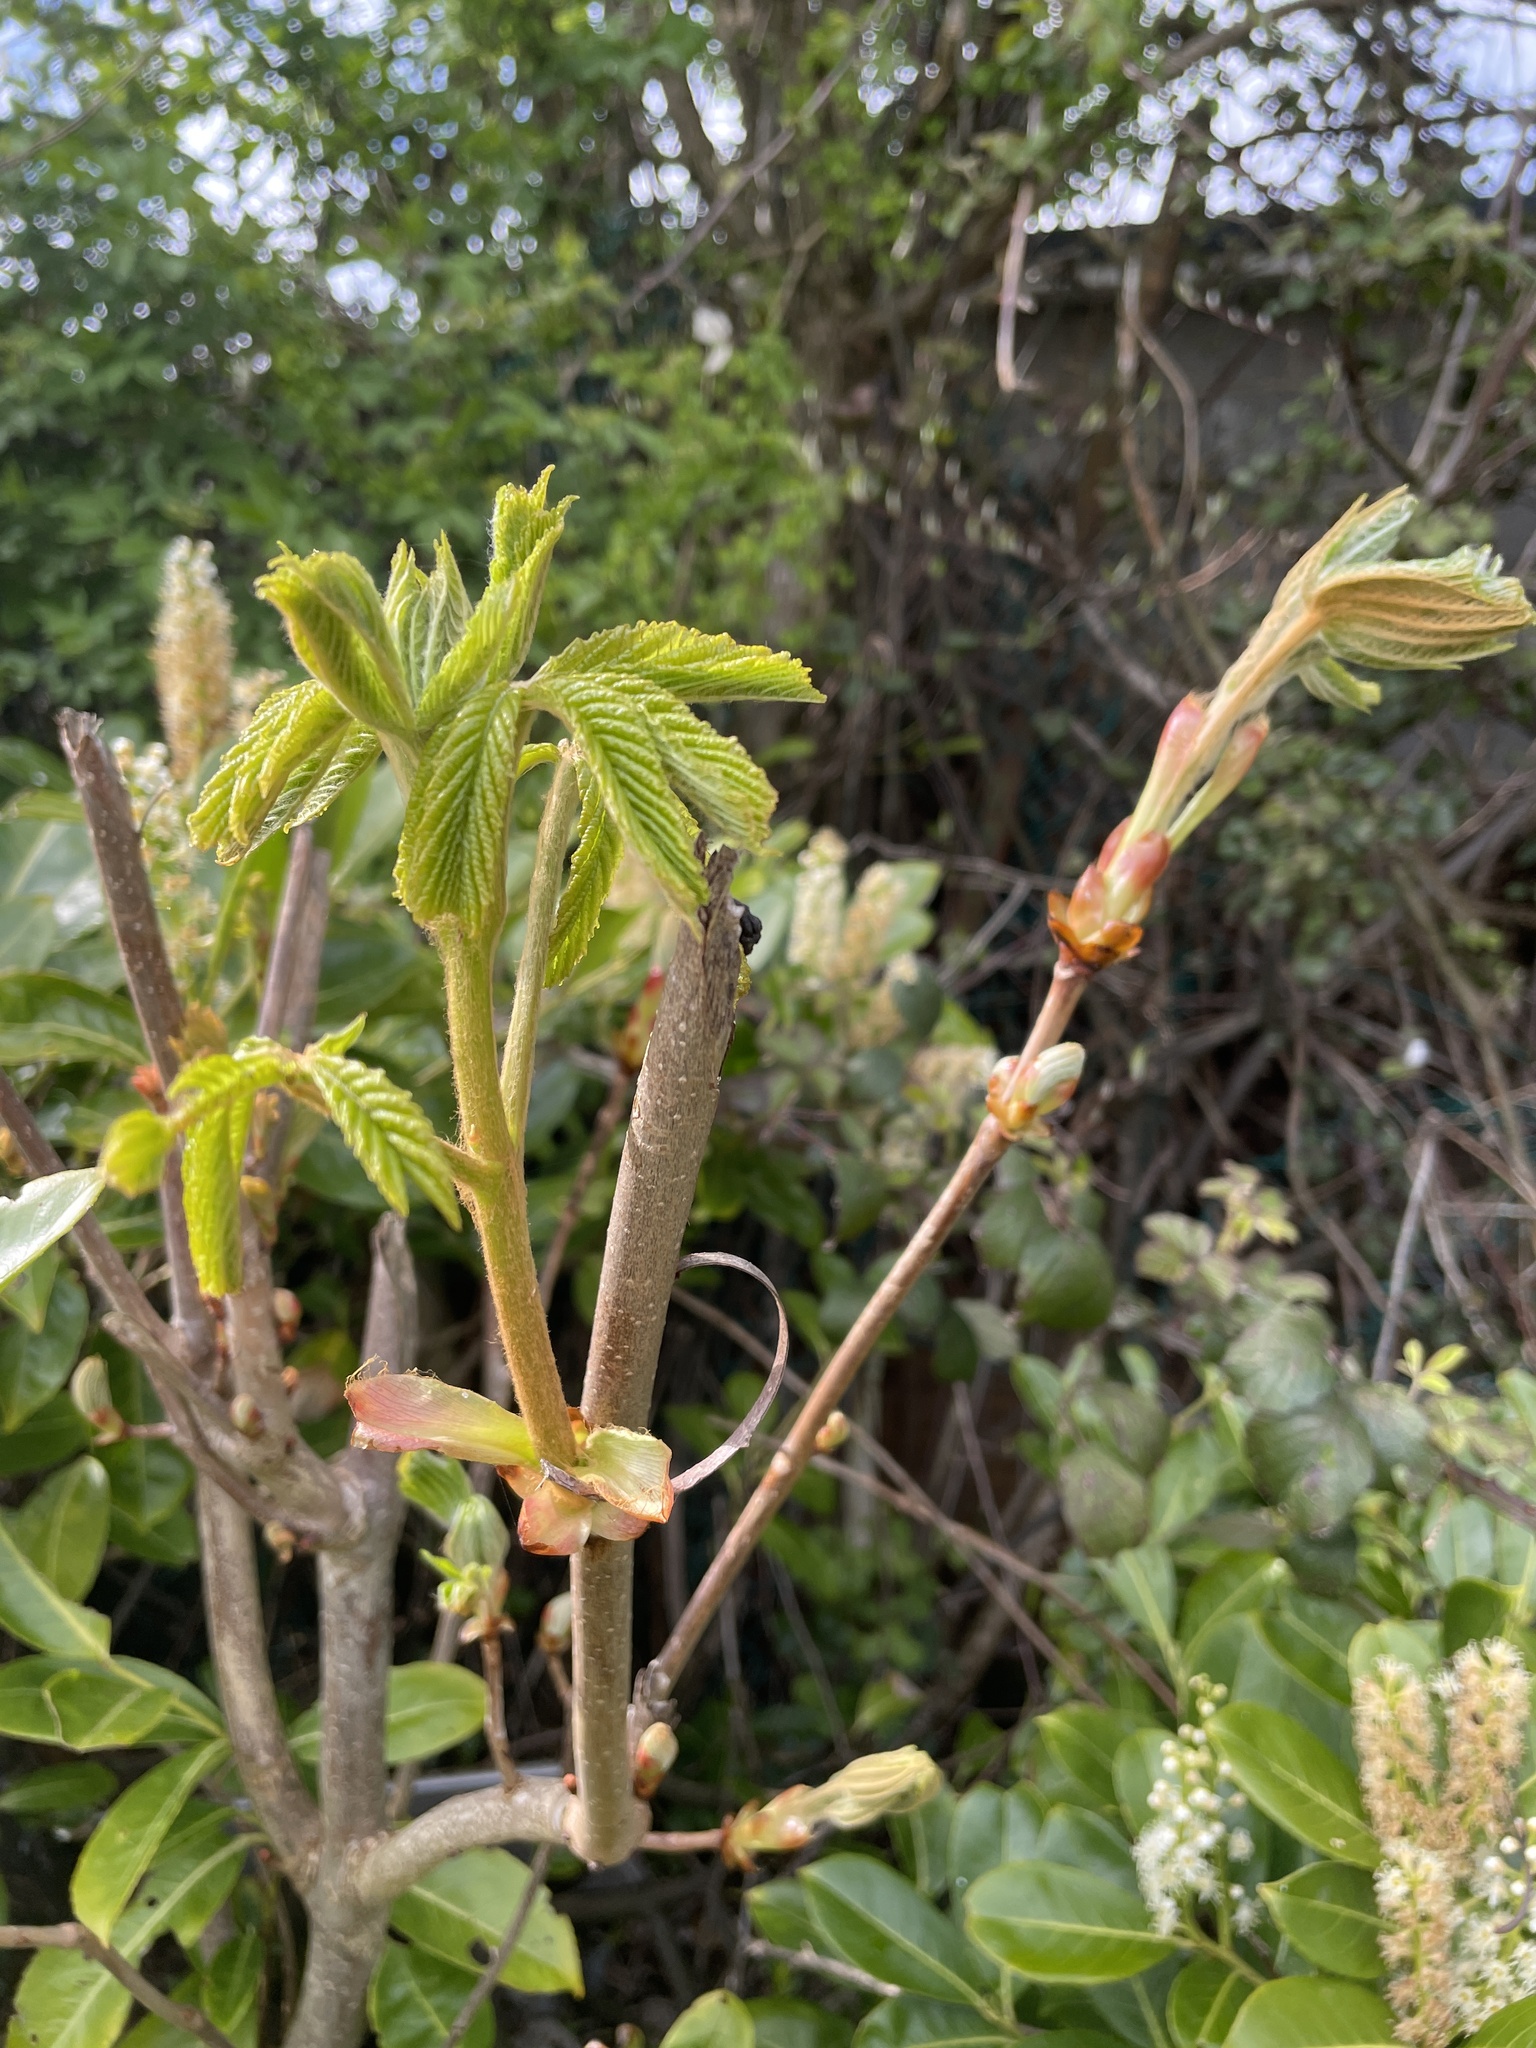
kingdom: Plantae
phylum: Tracheophyta
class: Magnoliopsida
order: Sapindales
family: Sapindaceae
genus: Aesculus
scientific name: Aesculus hippocastanum
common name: Horse-chestnut
